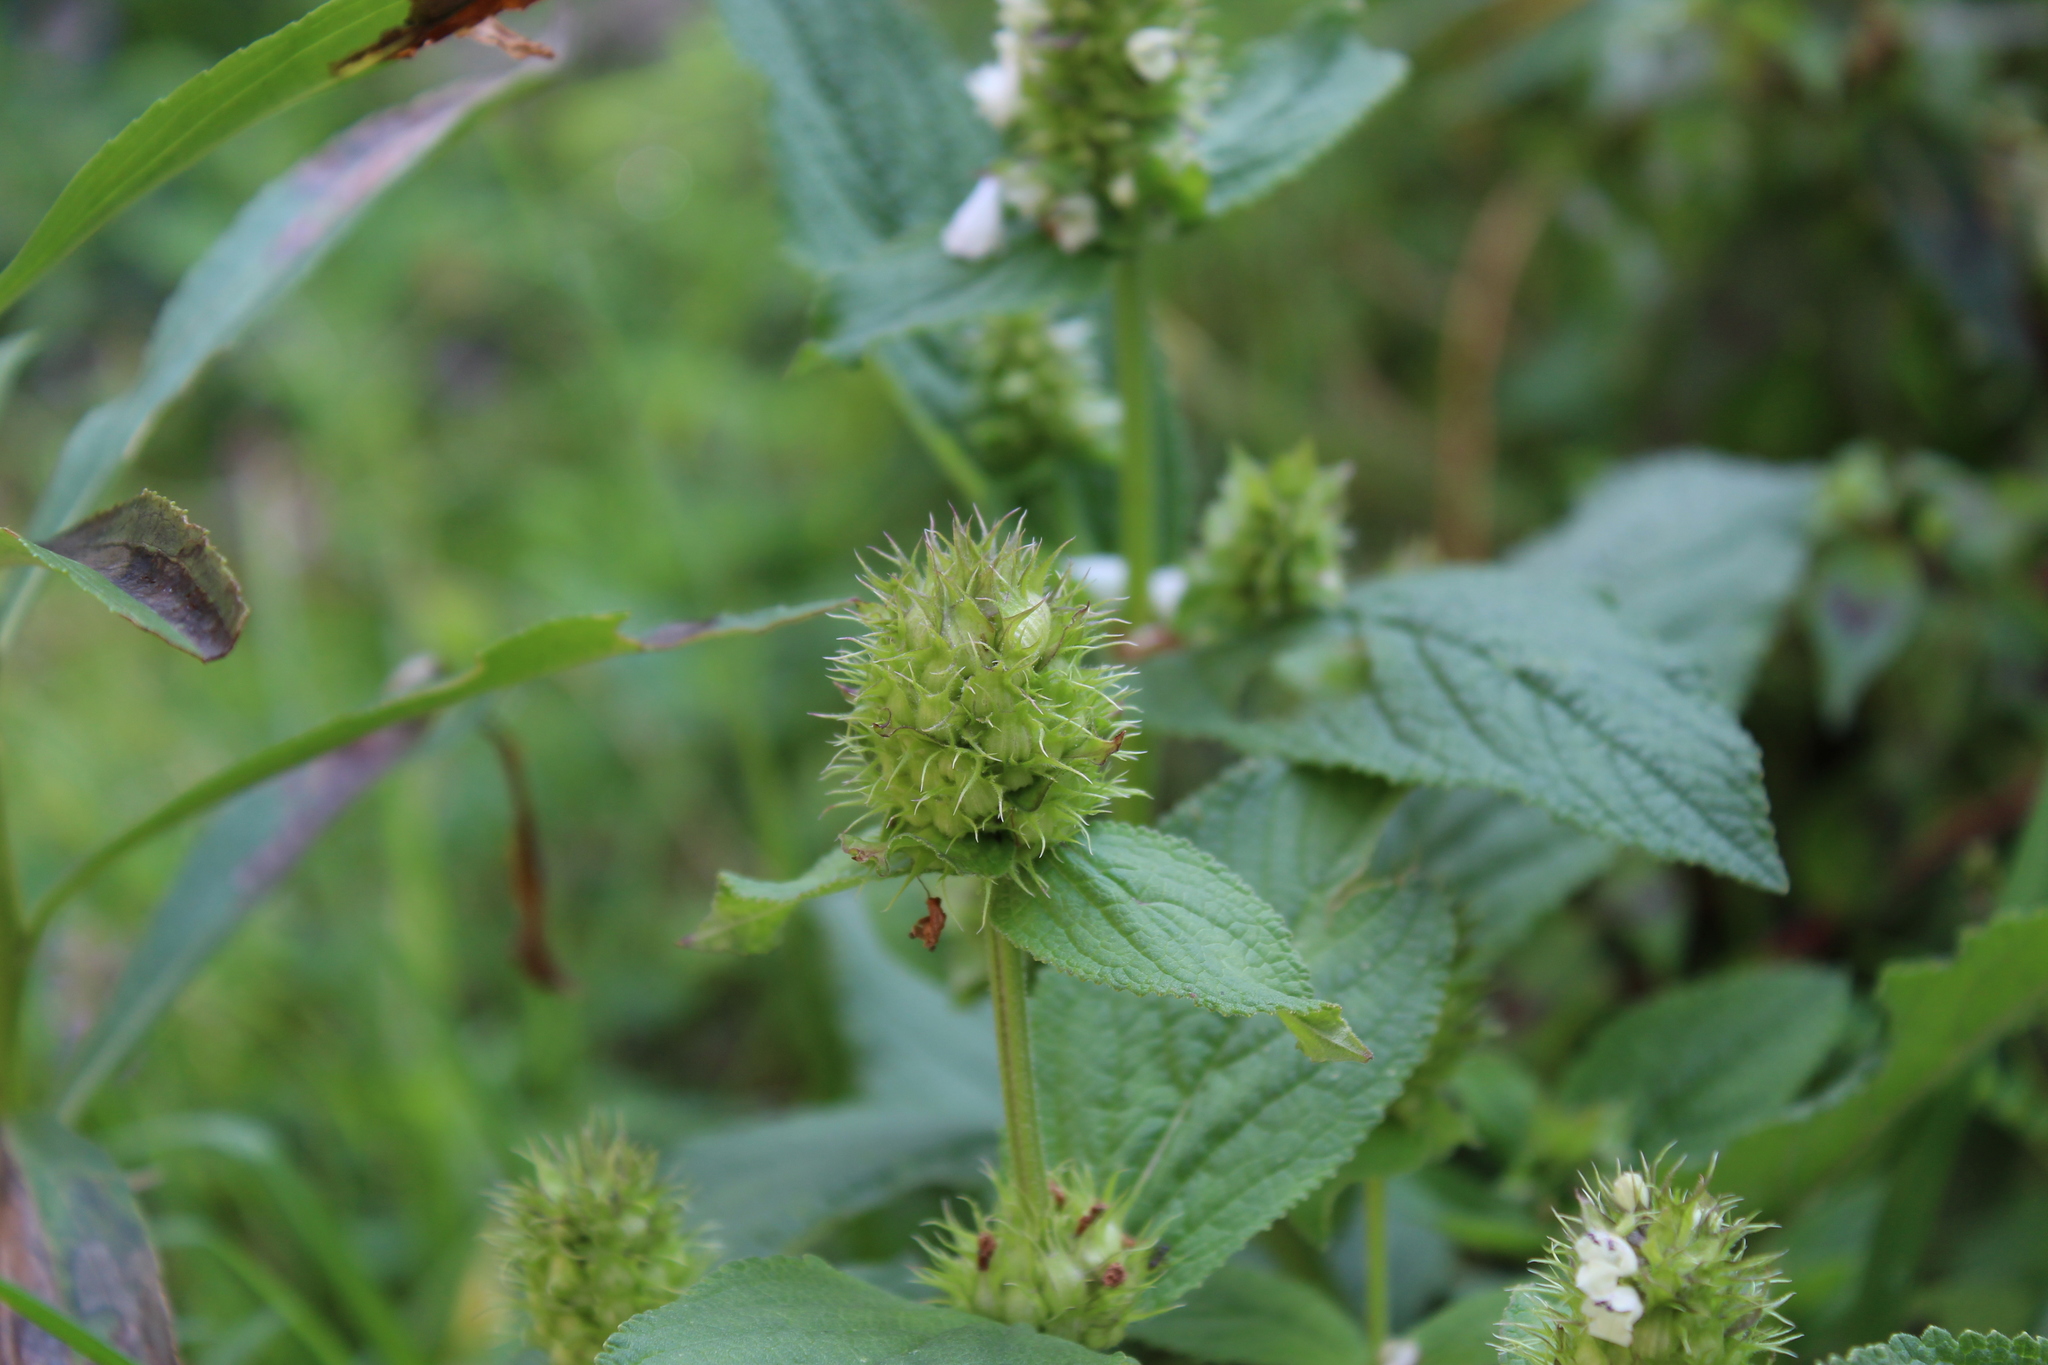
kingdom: Plantae
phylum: Tracheophyta
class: Magnoliopsida
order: Lamiales
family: Lamiaceae
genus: Lepechinia
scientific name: Lepechinia caulescens
